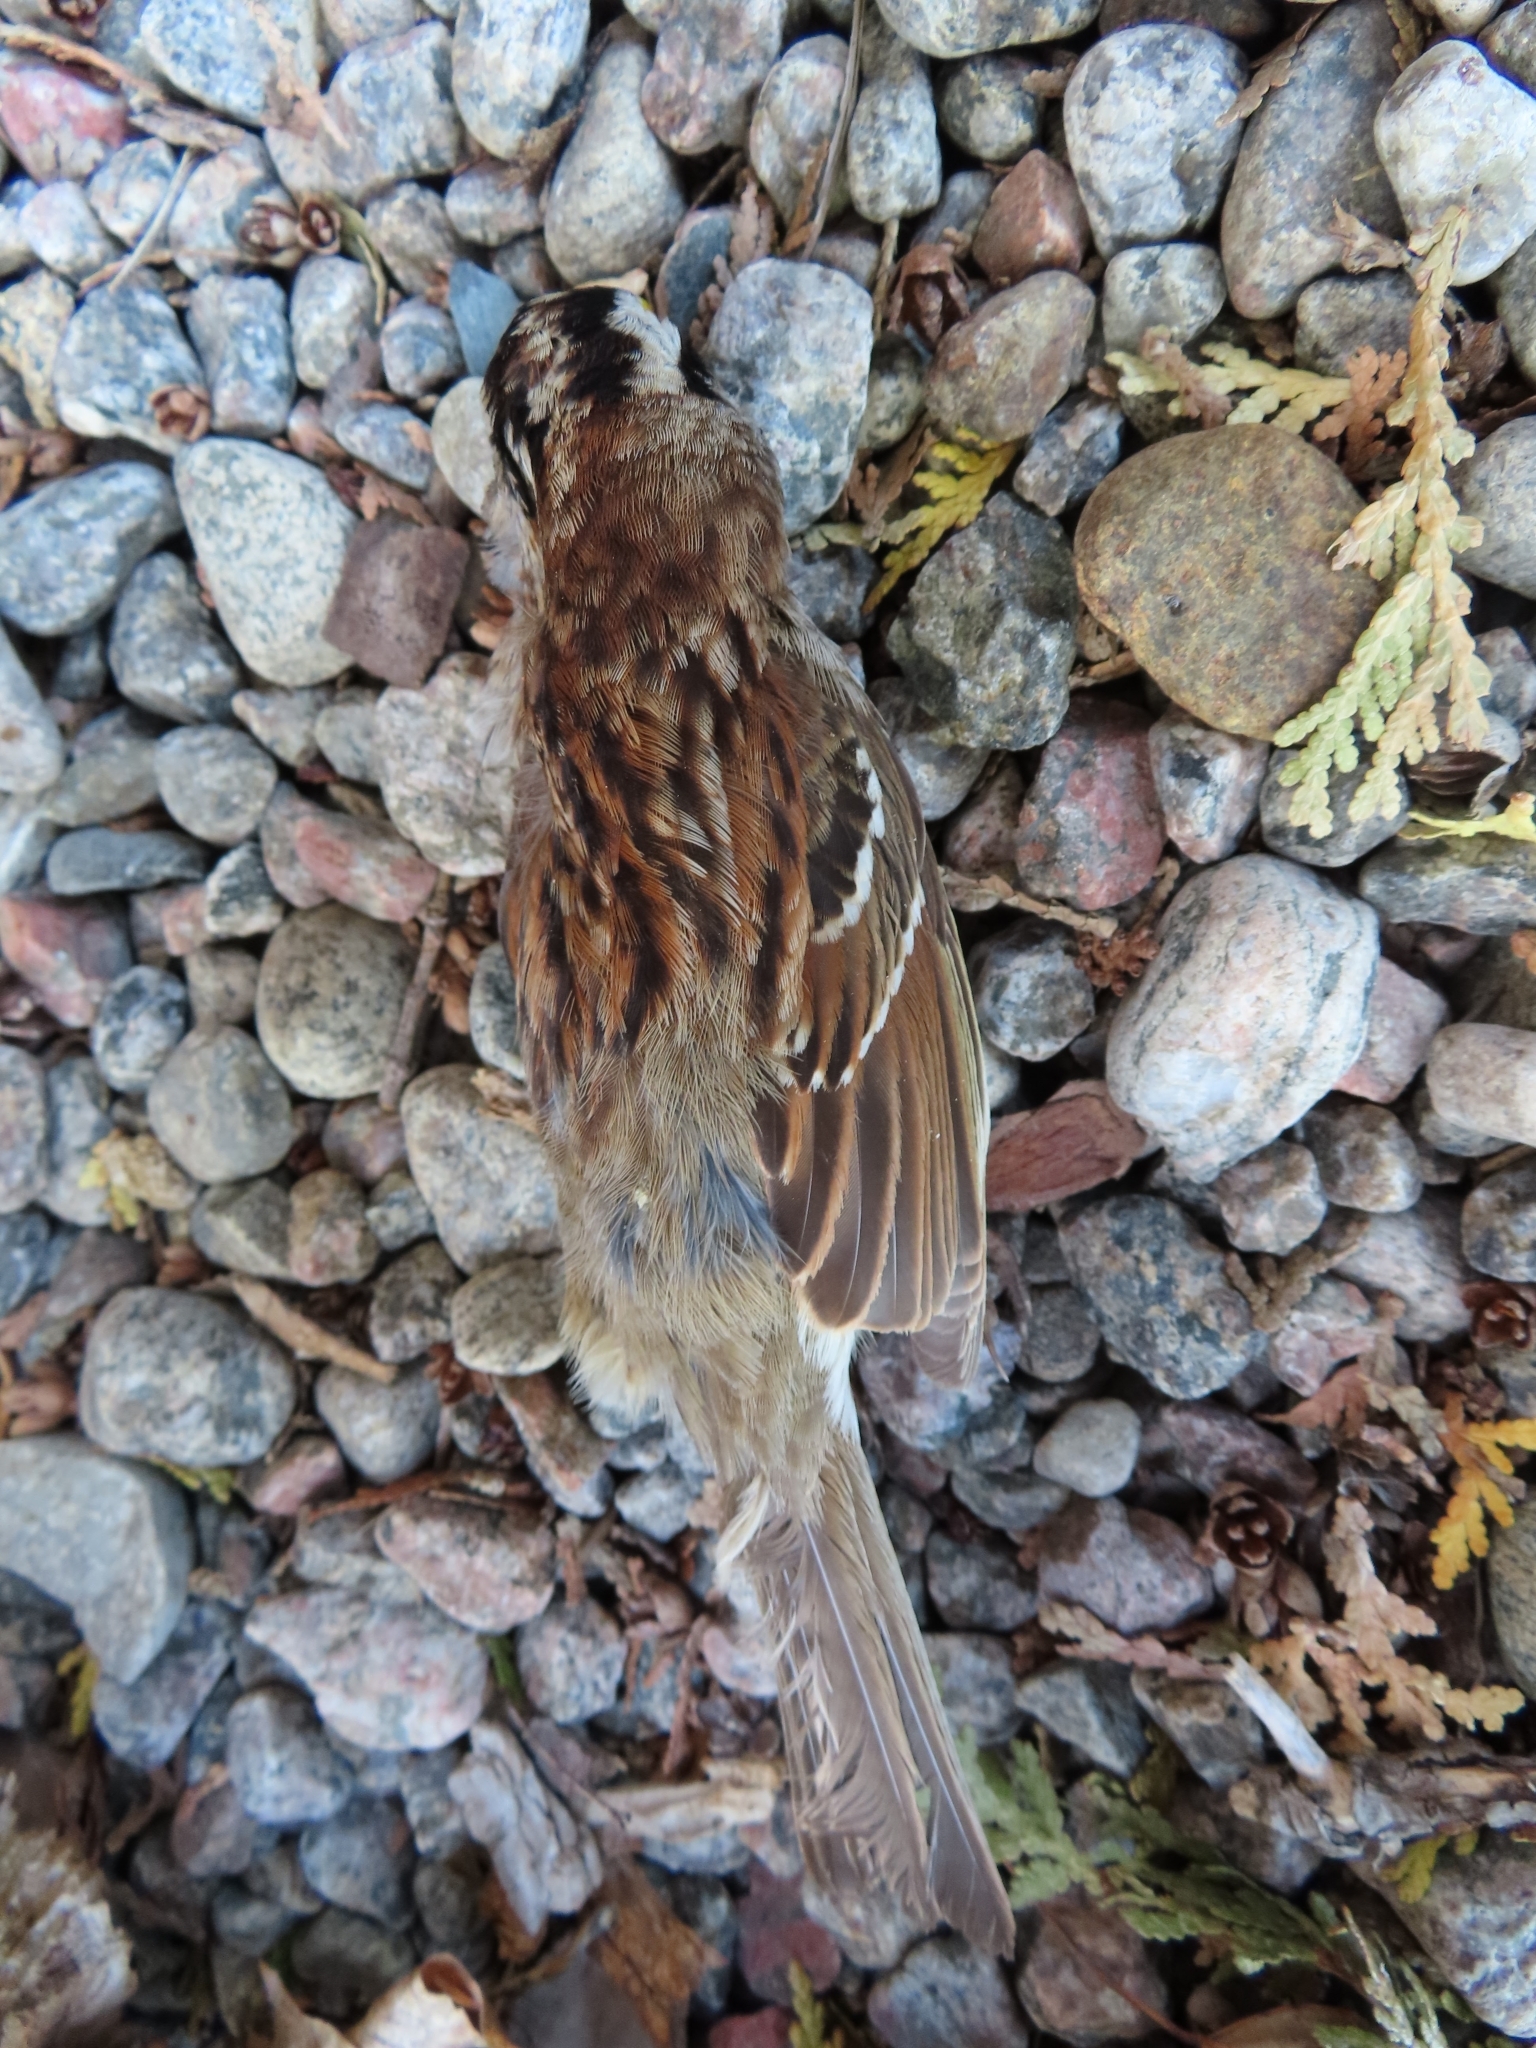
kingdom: Animalia
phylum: Chordata
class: Aves
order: Passeriformes
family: Passerellidae
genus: Zonotrichia
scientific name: Zonotrichia albicollis
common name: White-throated sparrow
